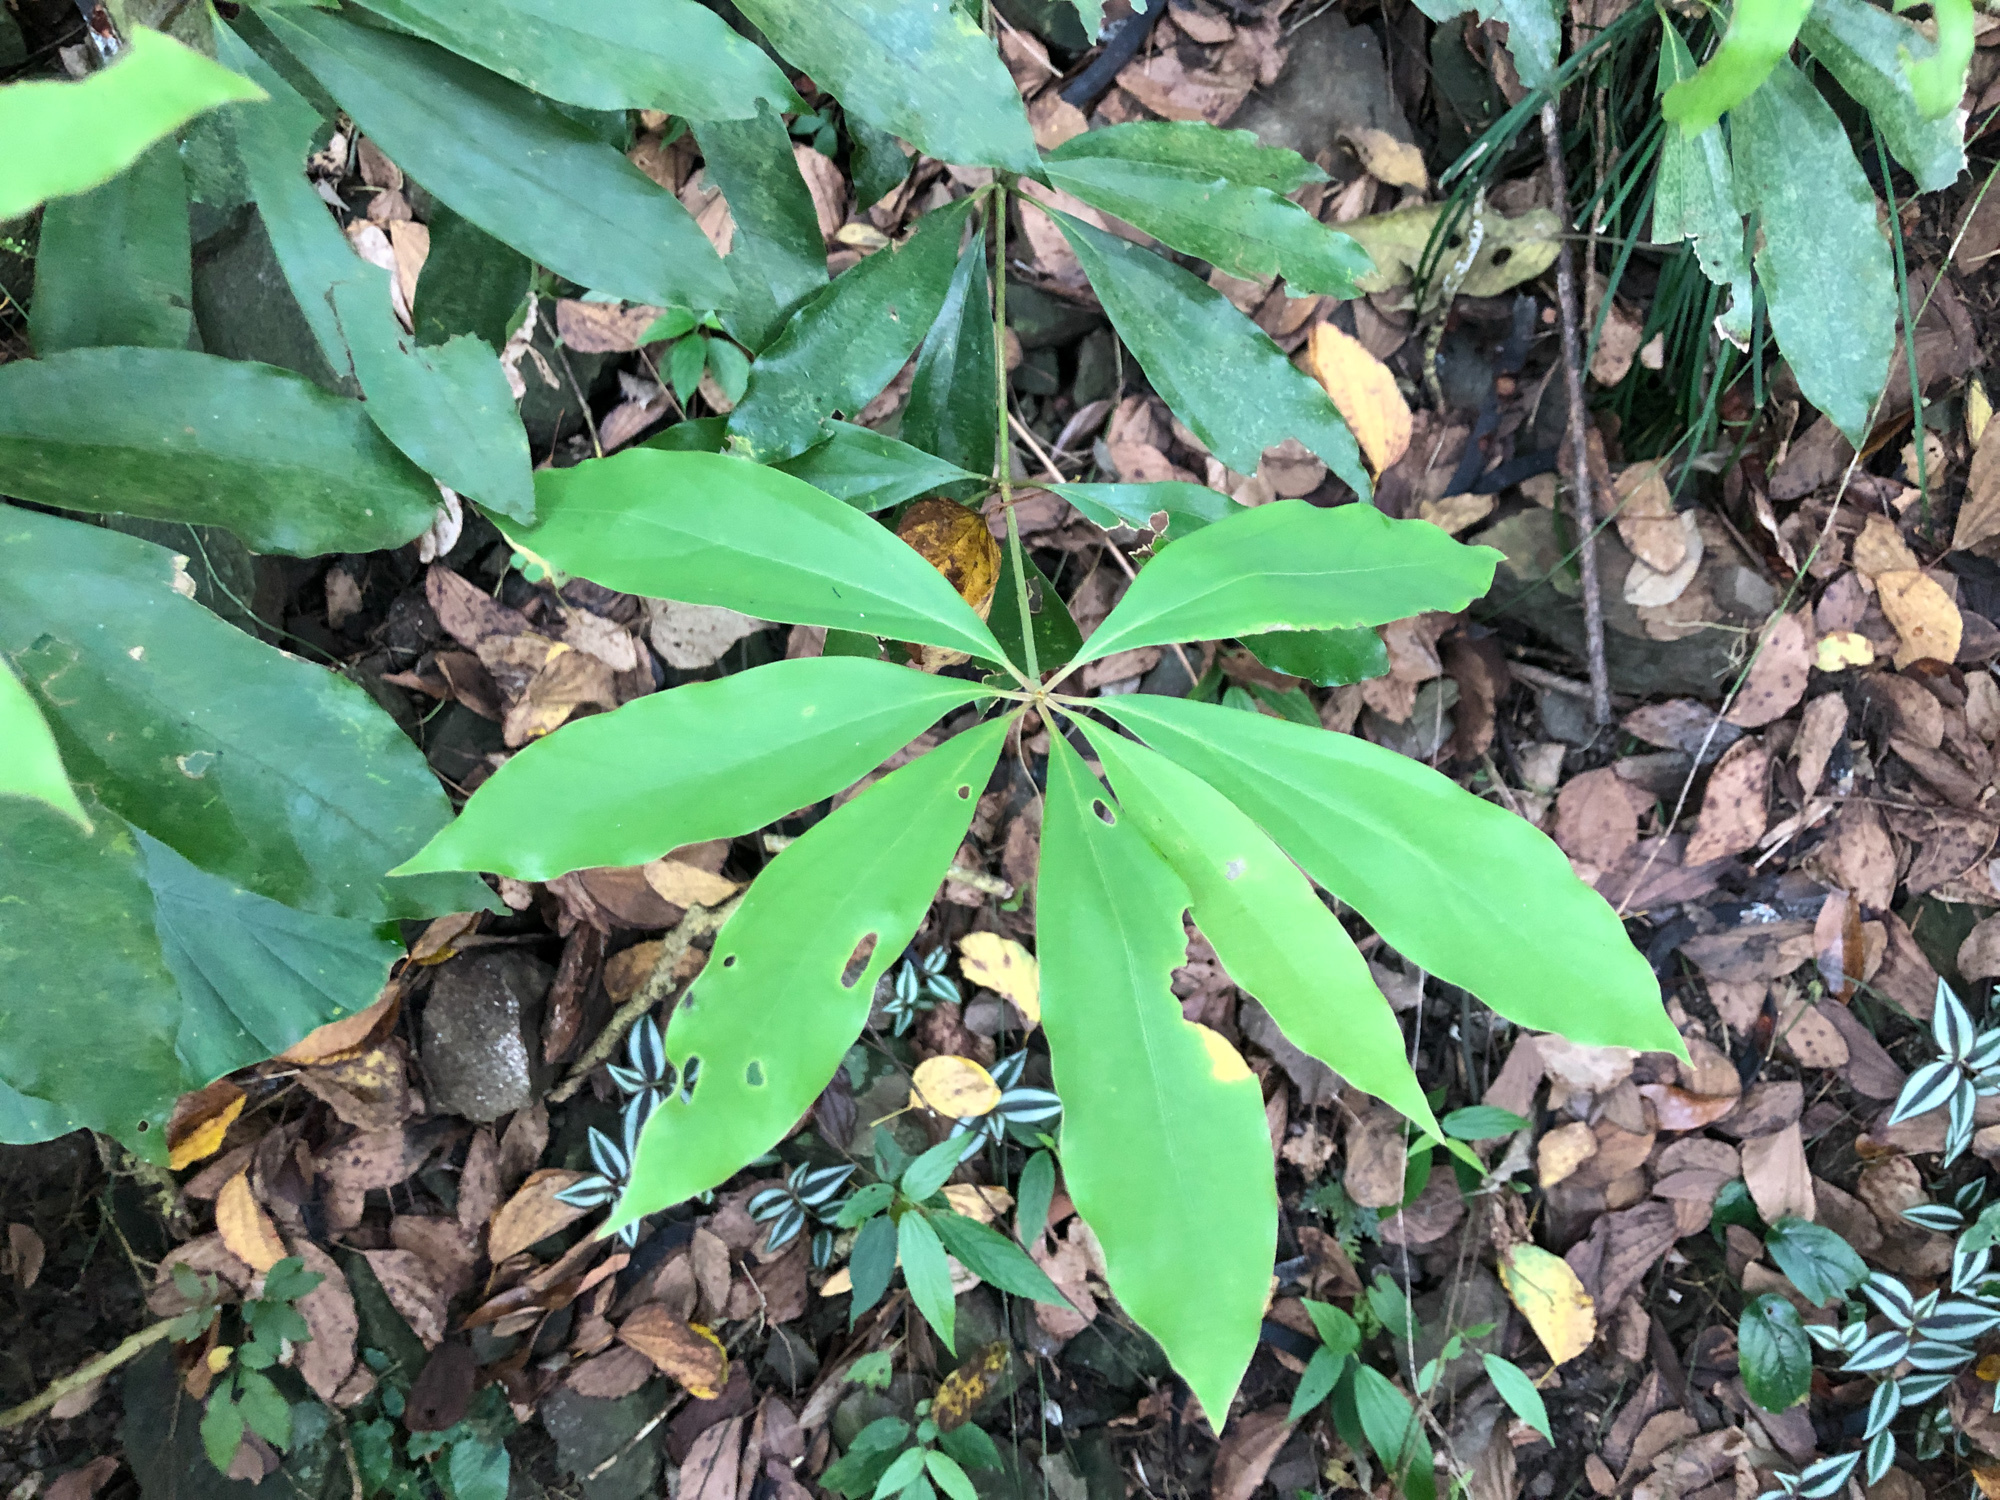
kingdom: Plantae
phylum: Tracheophyta
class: Magnoliopsida
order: Laurales
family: Lauraceae
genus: Neolitsea
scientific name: Neolitsea konishii
